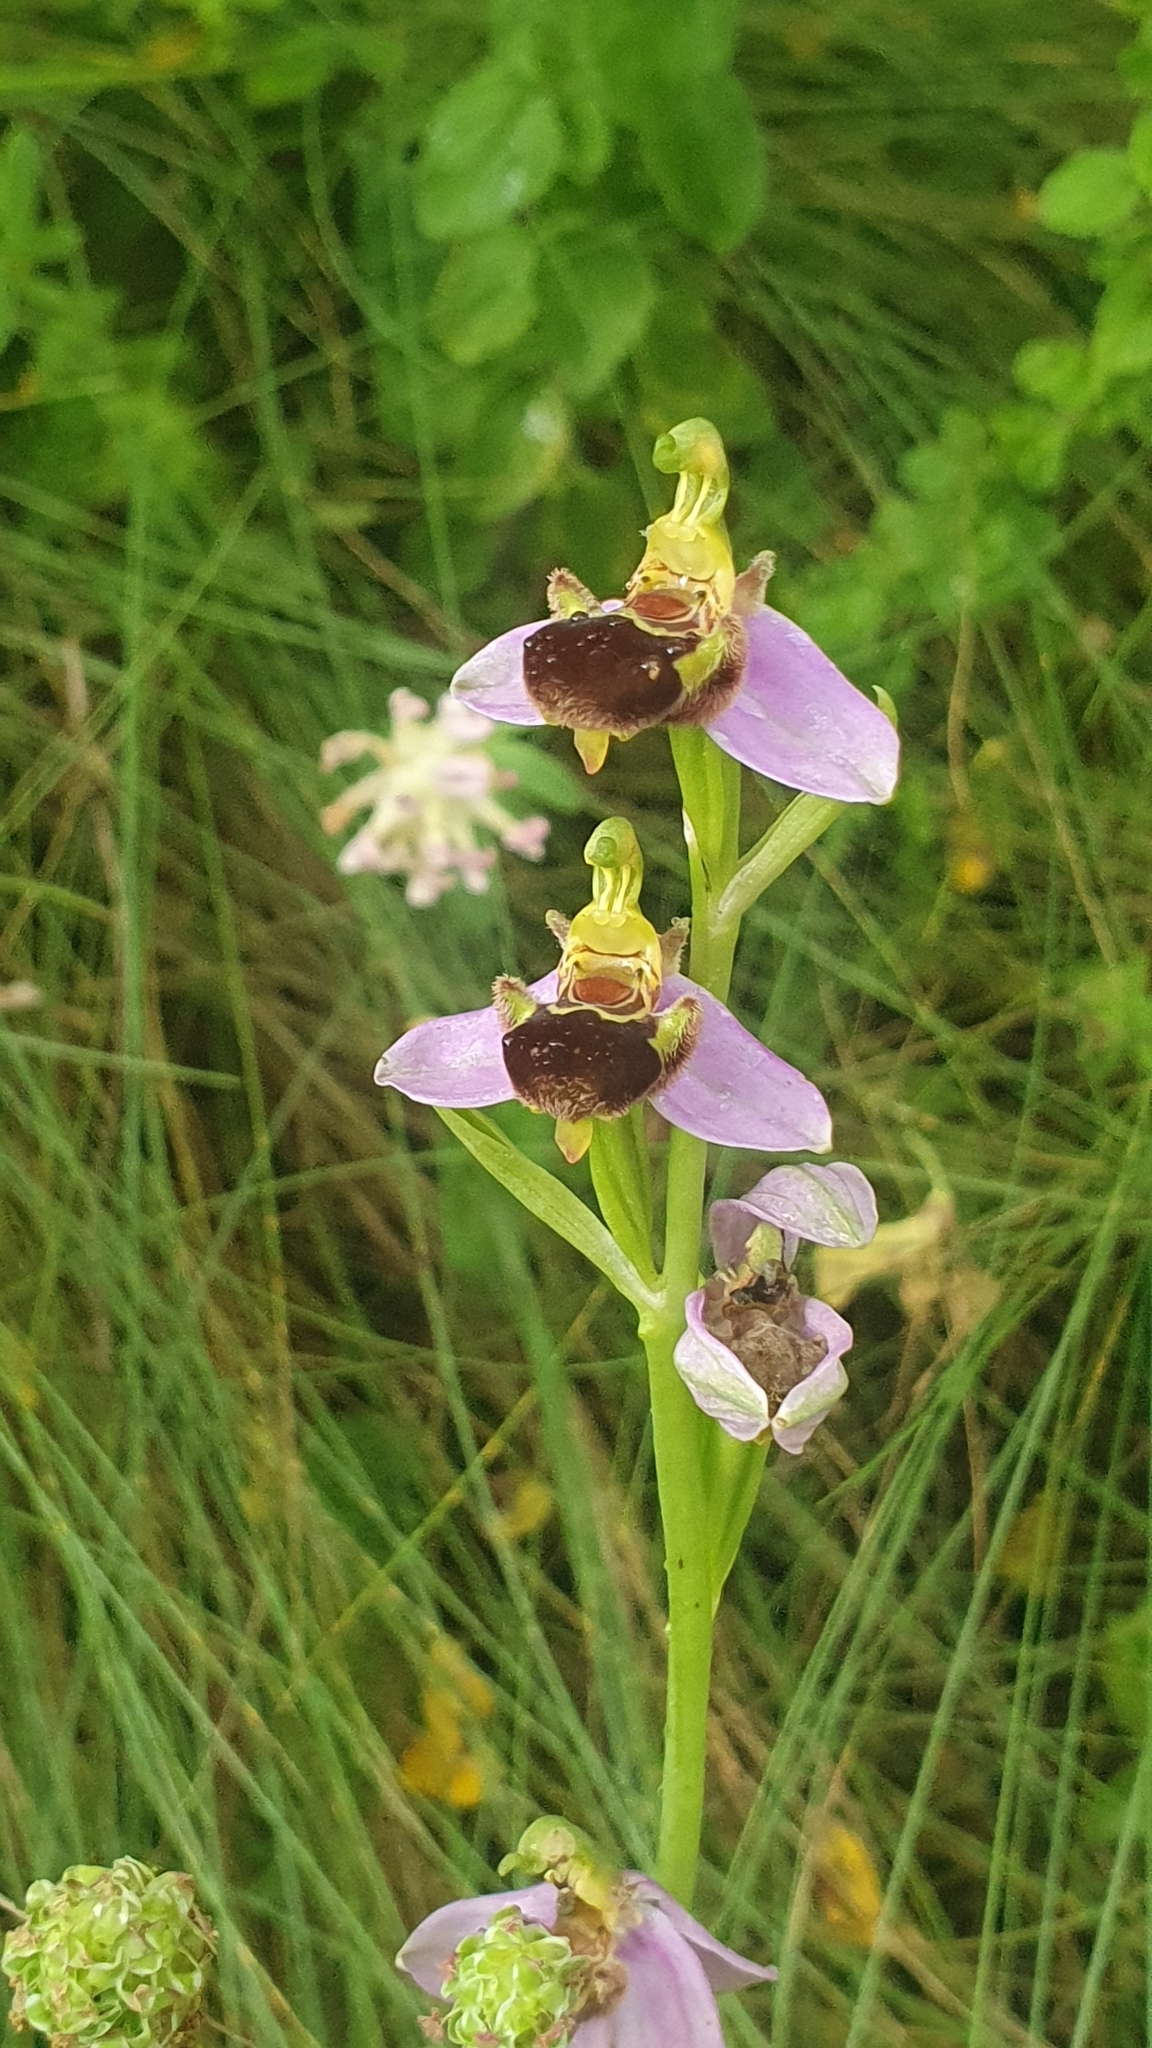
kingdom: Plantae
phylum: Tracheophyta
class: Liliopsida
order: Asparagales
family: Orchidaceae
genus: Ophrys
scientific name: Ophrys apifera
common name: Bee orchid
